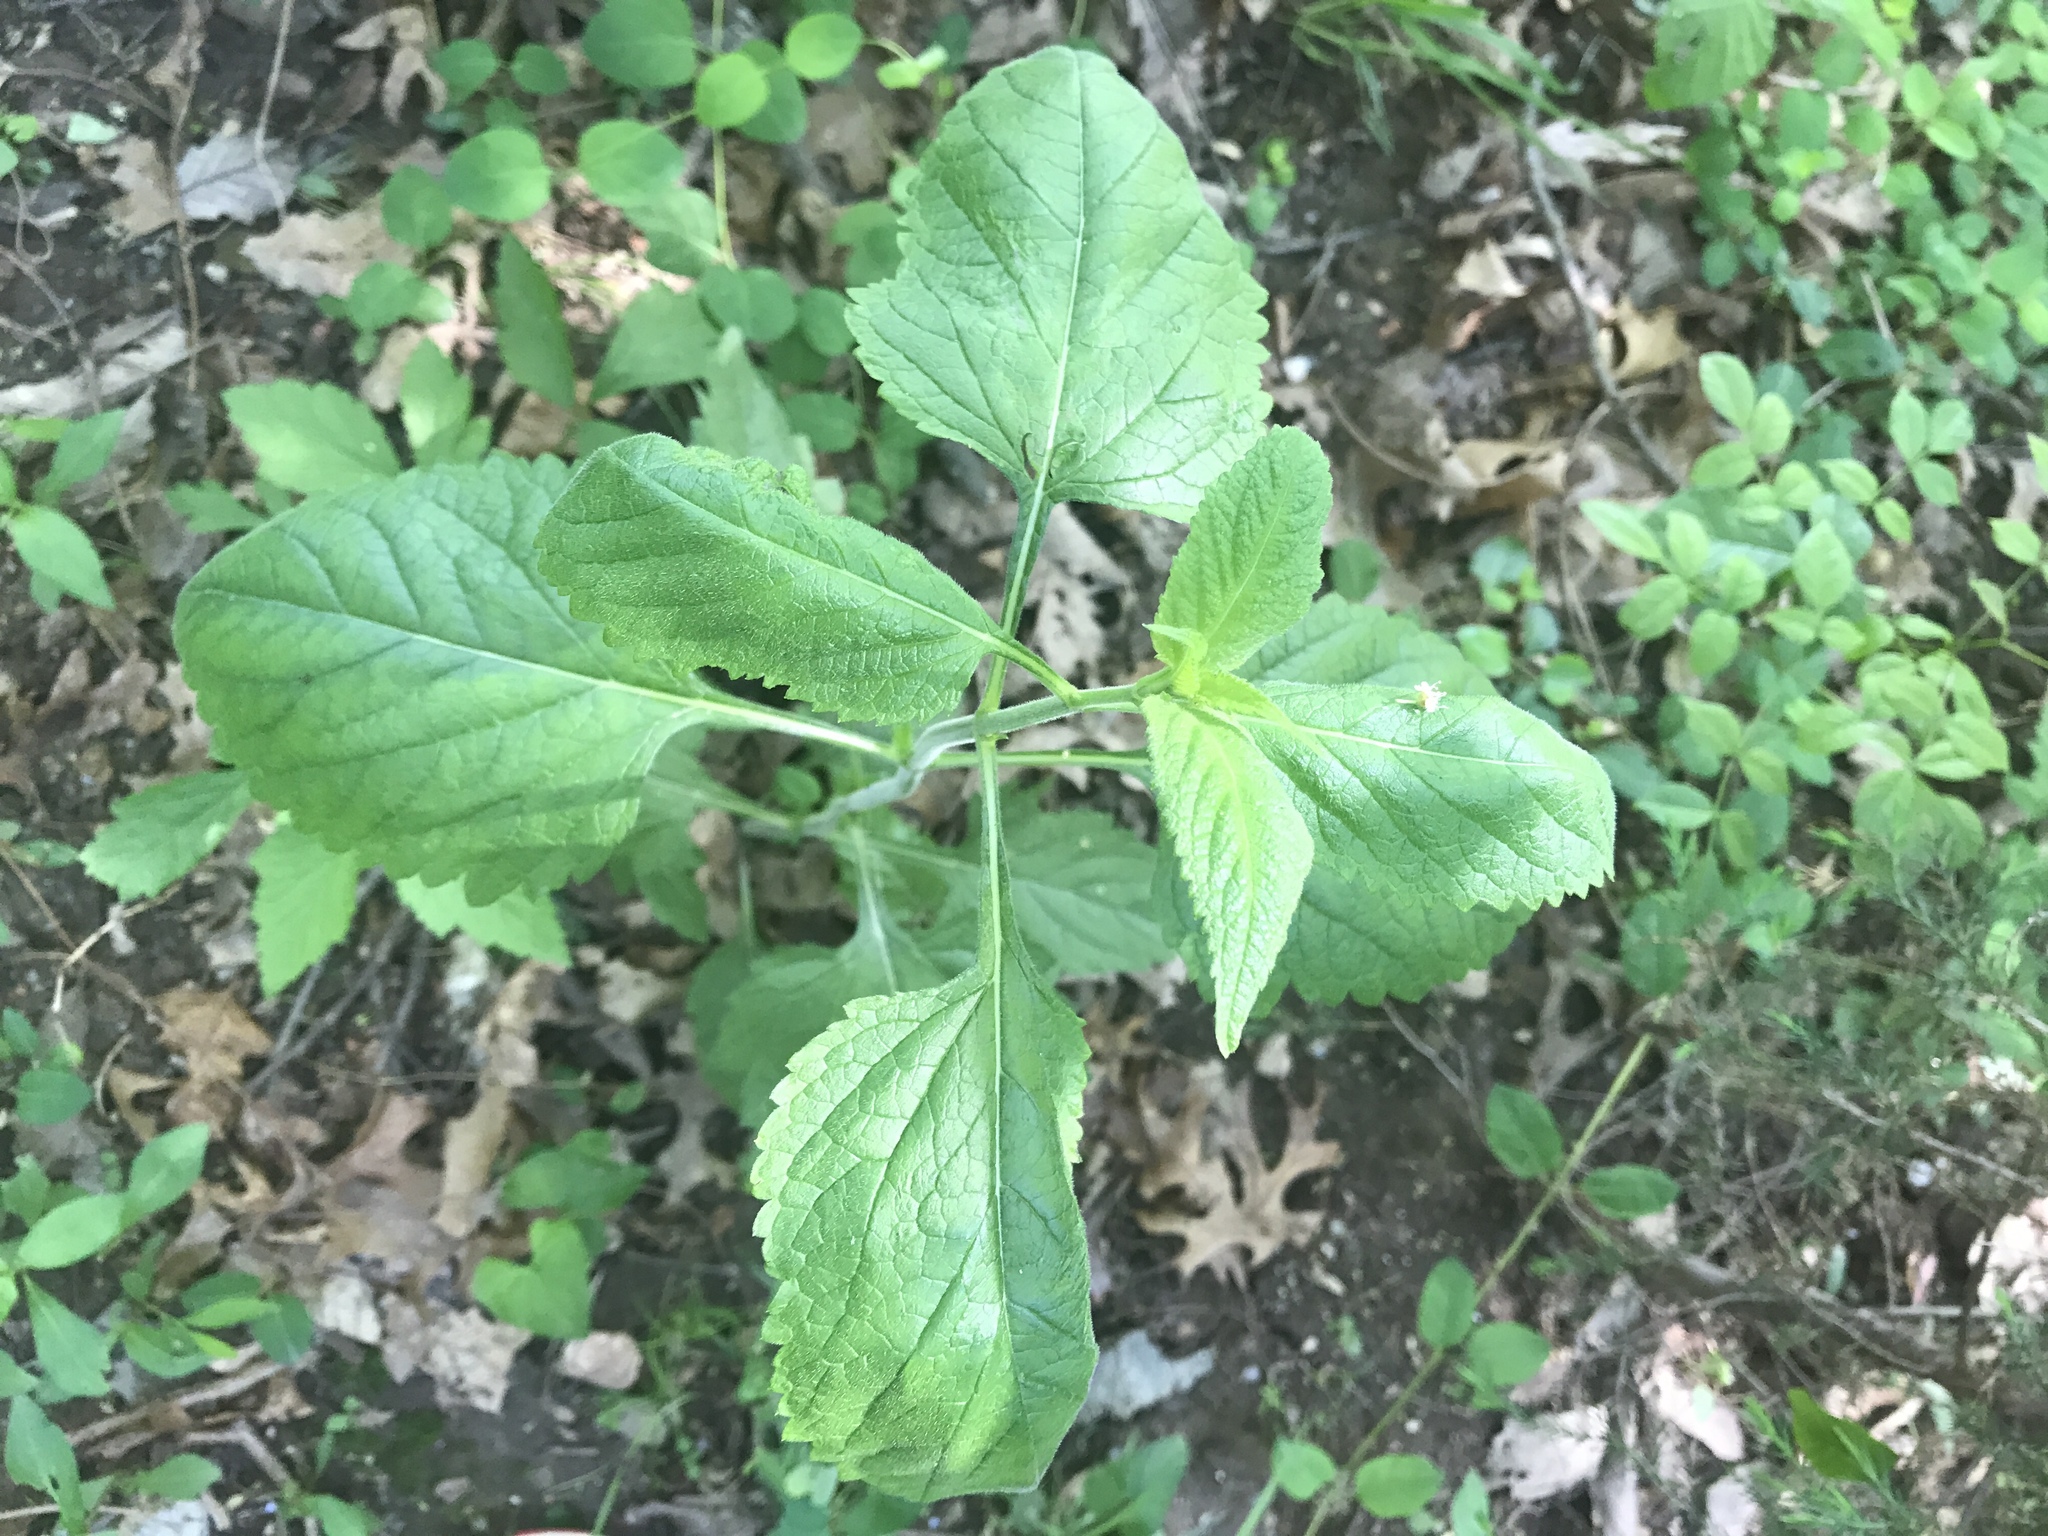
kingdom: Plantae
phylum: Tracheophyta
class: Magnoliopsida
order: Lamiales
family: Verbenaceae
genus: Verbena
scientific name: Verbena urticifolia
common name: Nettle-leaved vervain
